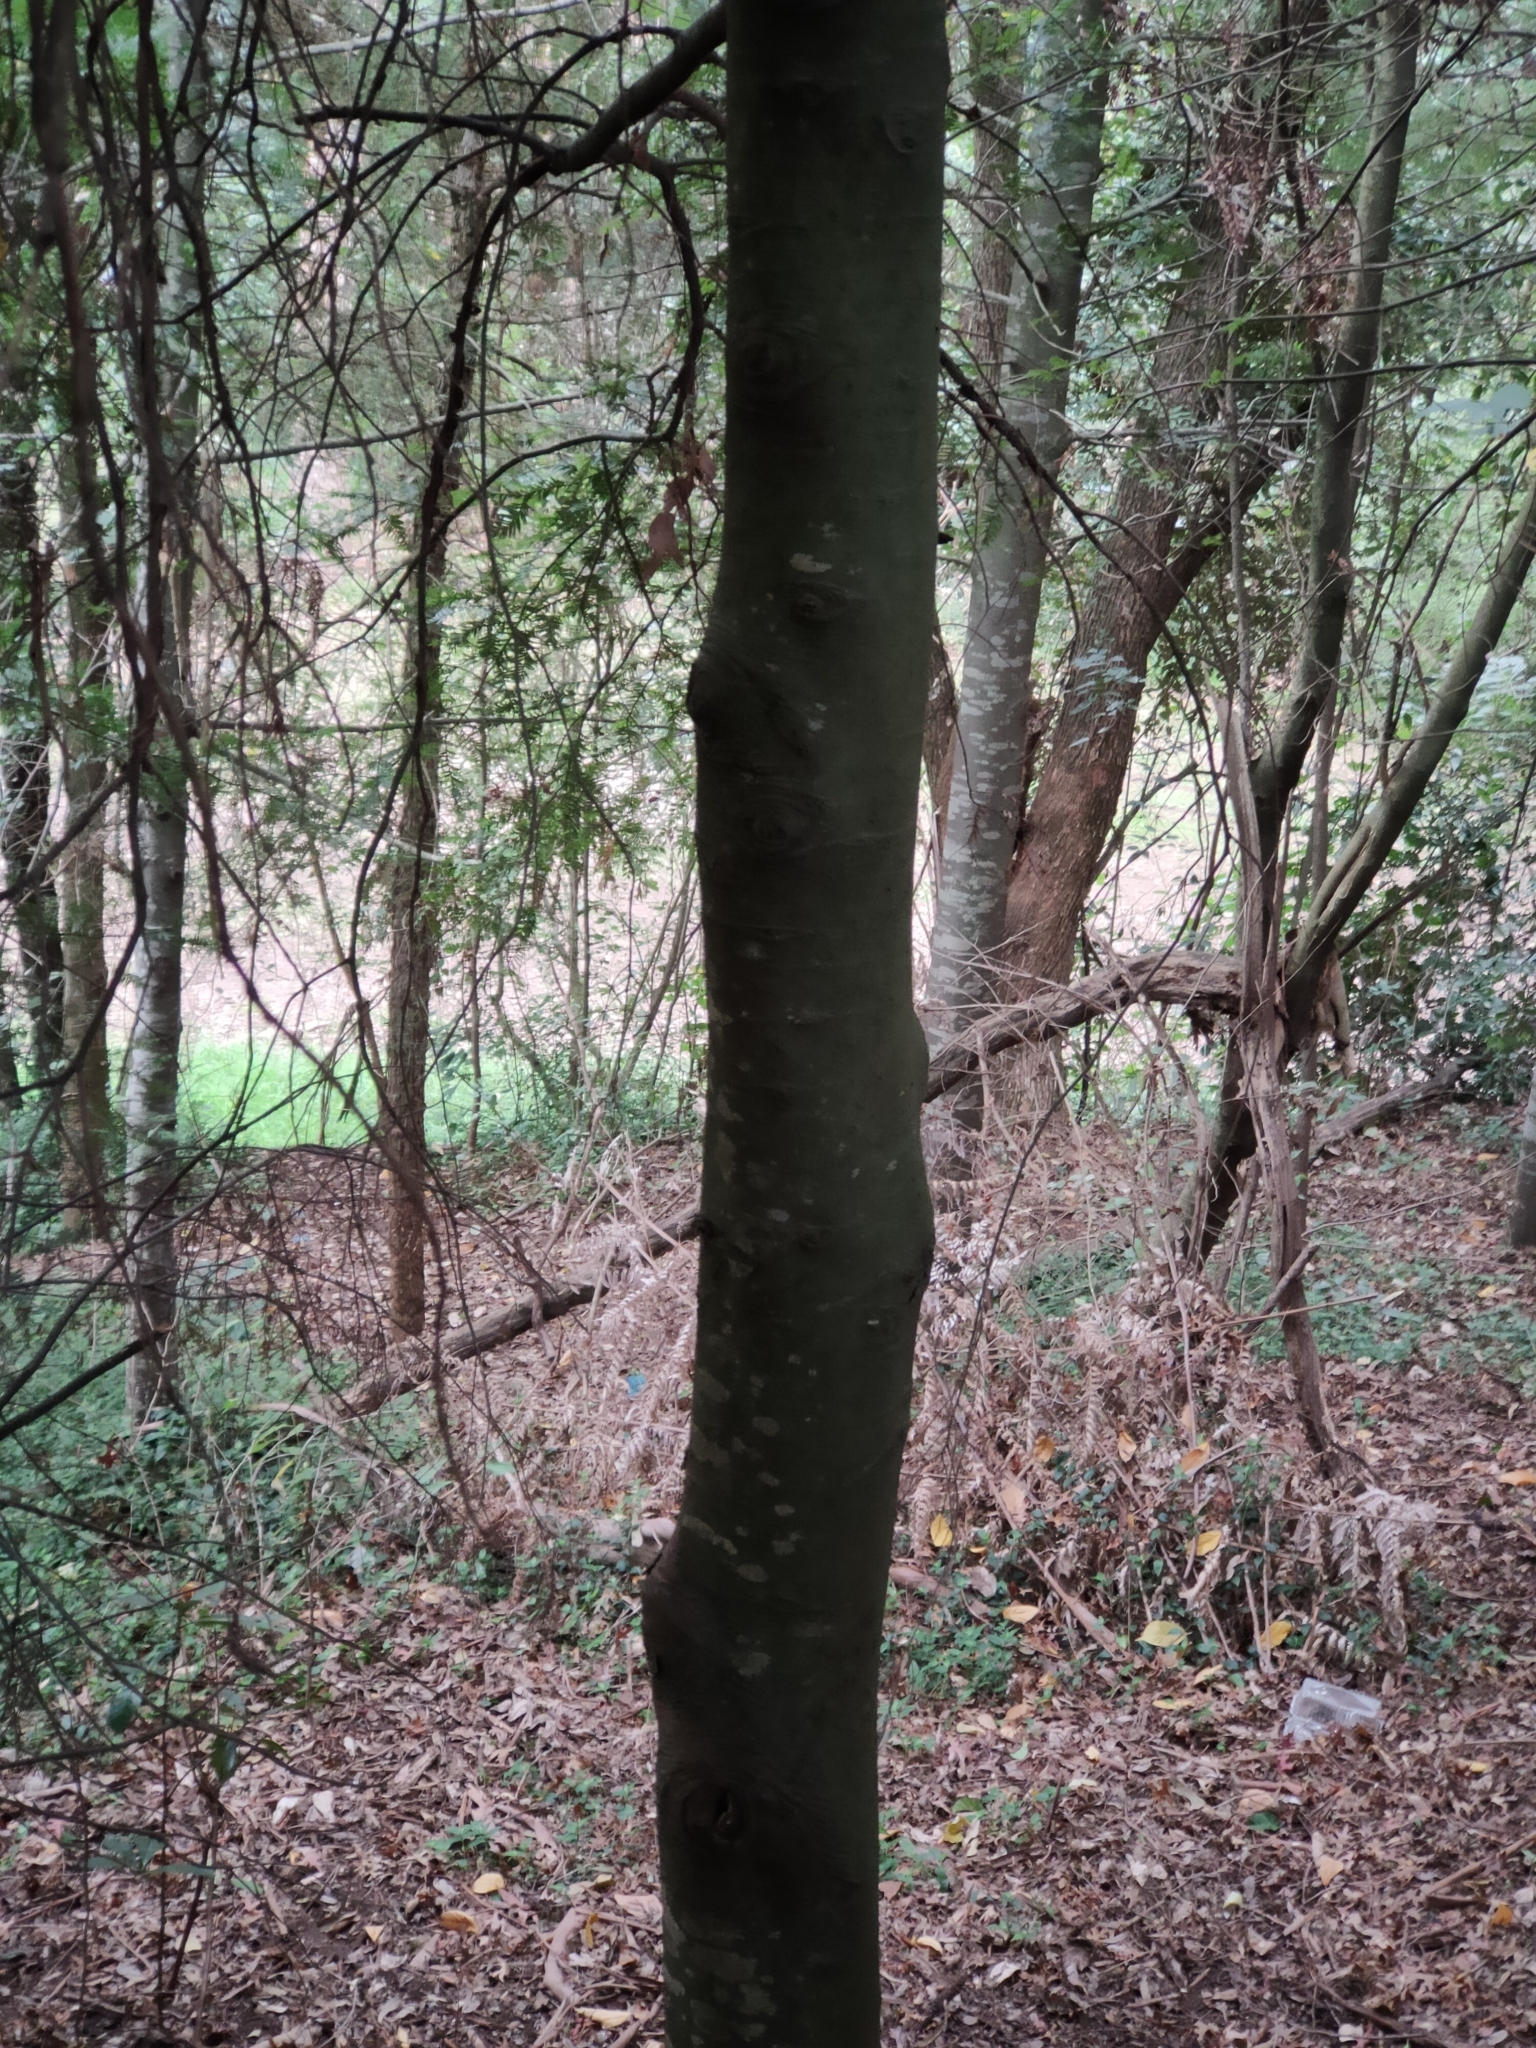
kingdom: Plantae
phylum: Tracheophyta
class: Pinopsida
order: Pinales
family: Podocarpaceae
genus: Prumnopitys
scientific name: Prumnopitys ferruginea
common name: Brown pine
